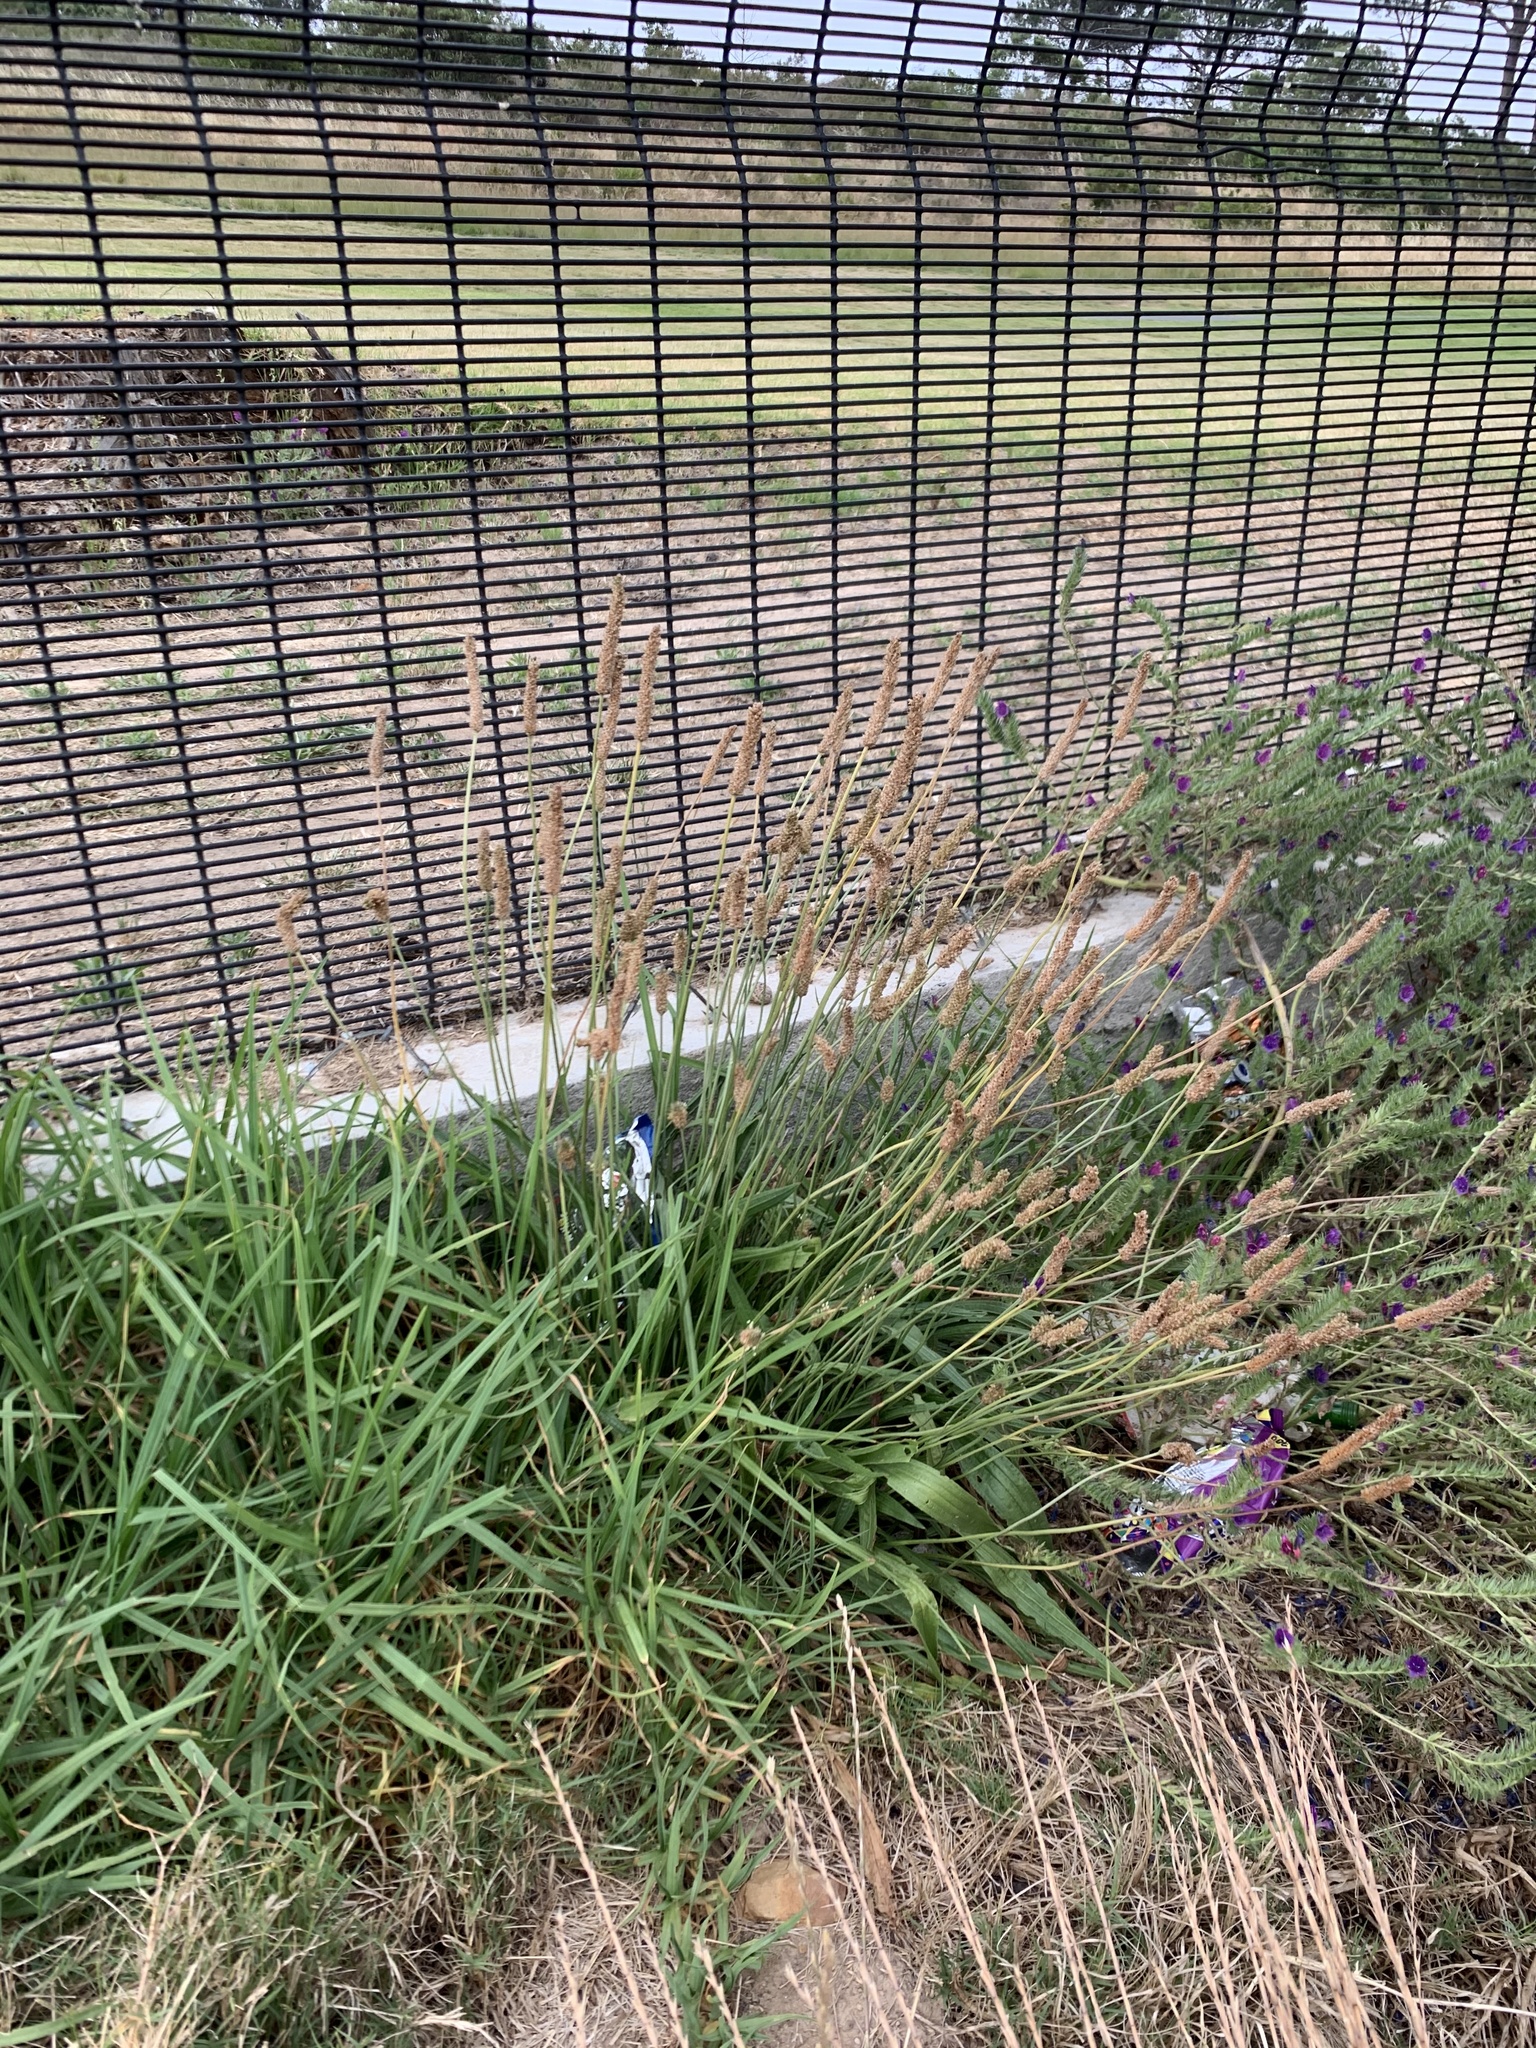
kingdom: Plantae
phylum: Tracheophyta
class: Magnoliopsida
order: Lamiales
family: Plantaginaceae
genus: Plantago
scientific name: Plantago lanceolata
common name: Ribwort plantain
